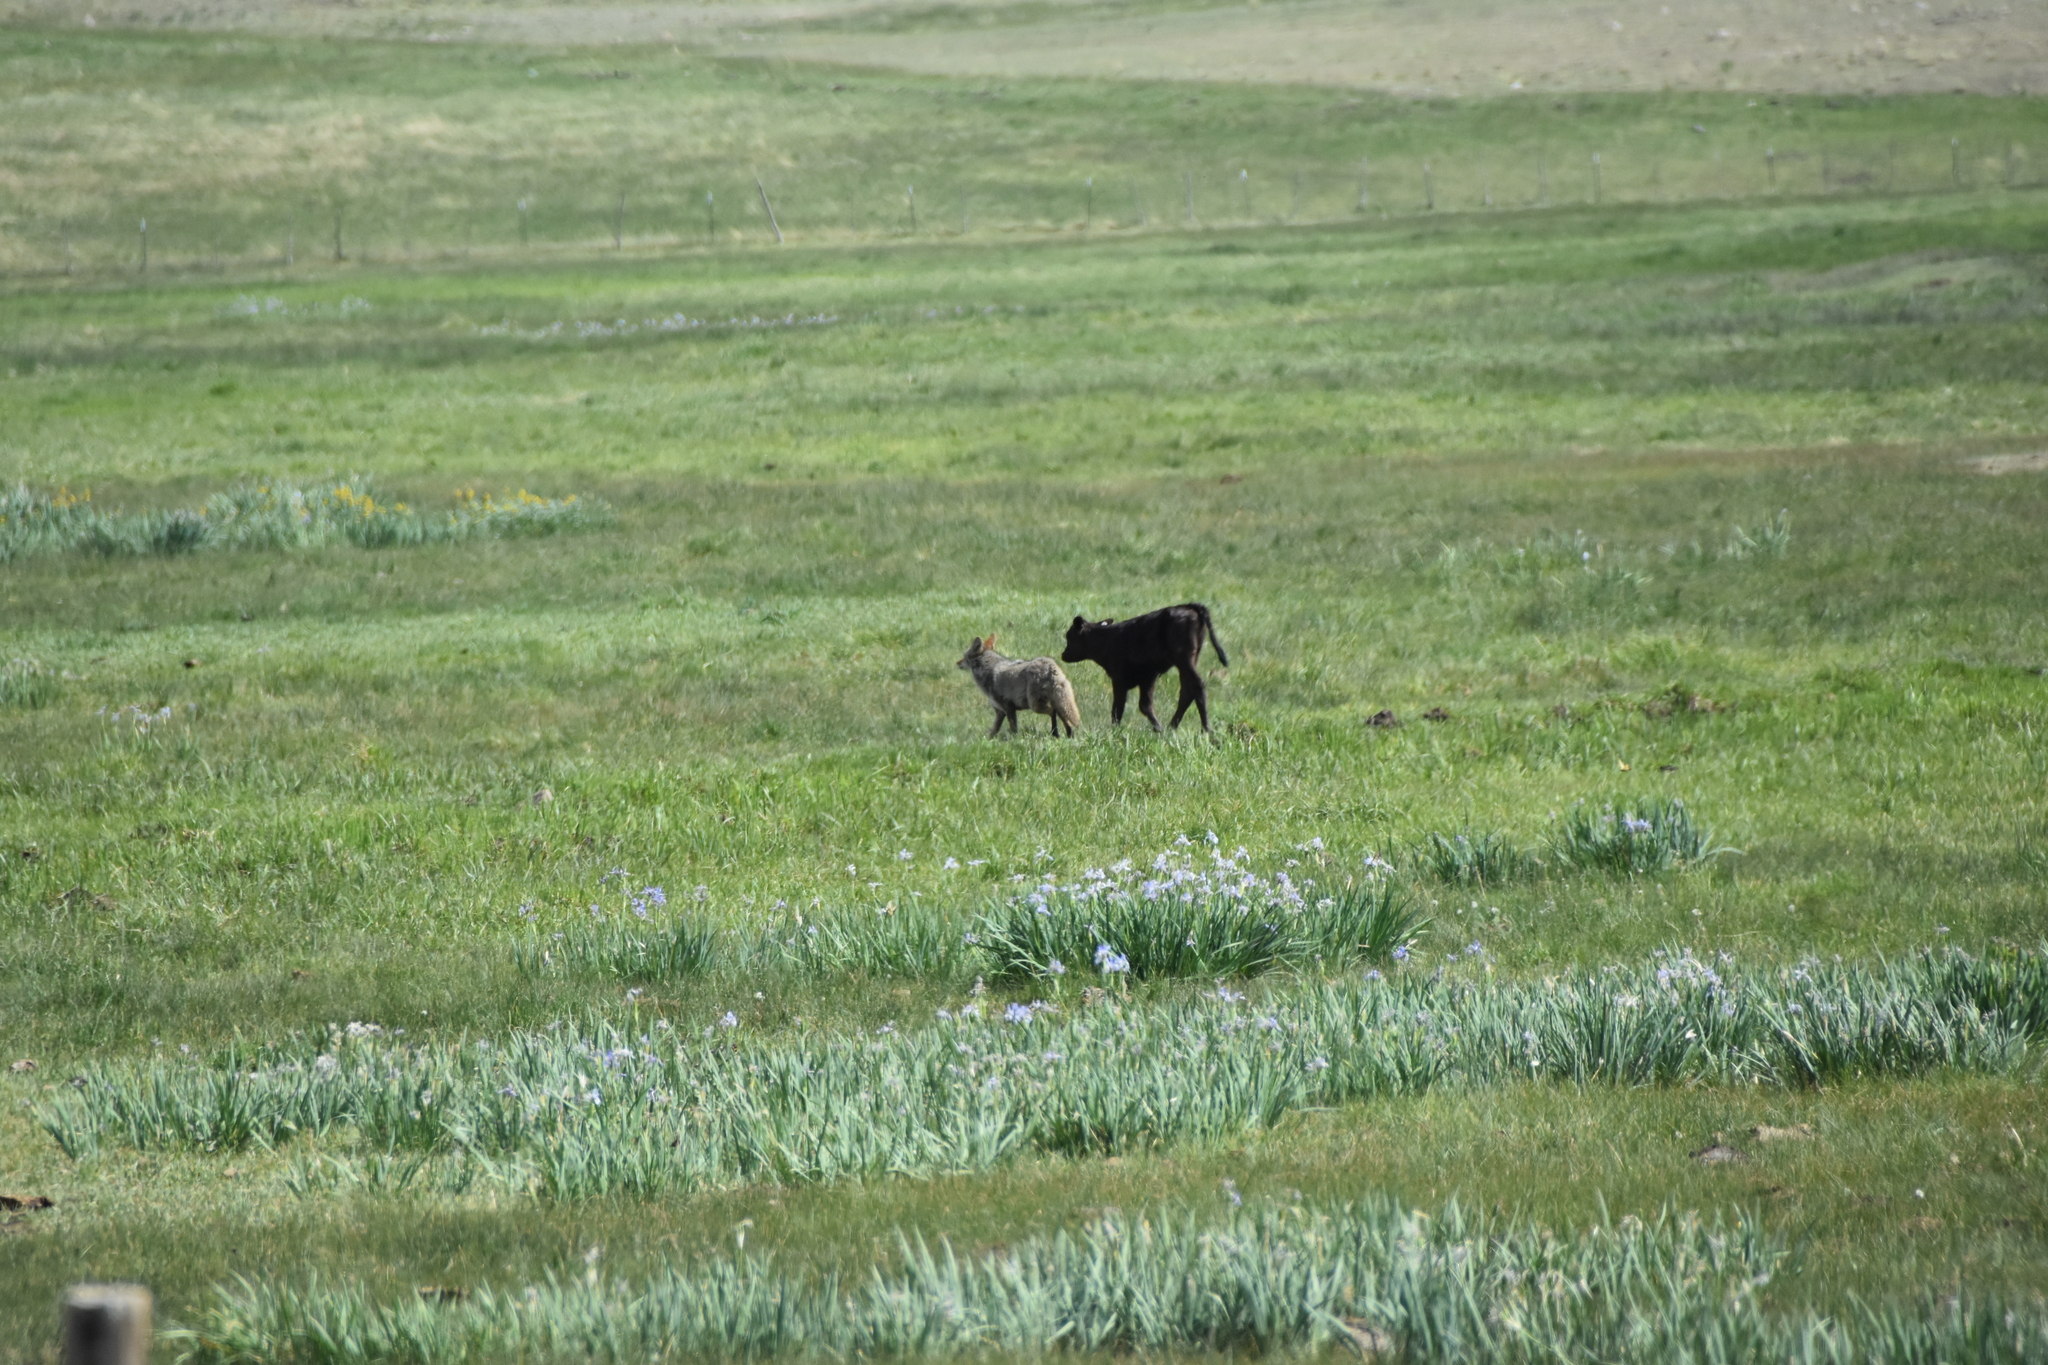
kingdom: Animalia
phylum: Chordata
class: Mammalia
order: Carnivora
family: Canidae
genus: Canis
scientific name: Canis latrans
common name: Coyote
